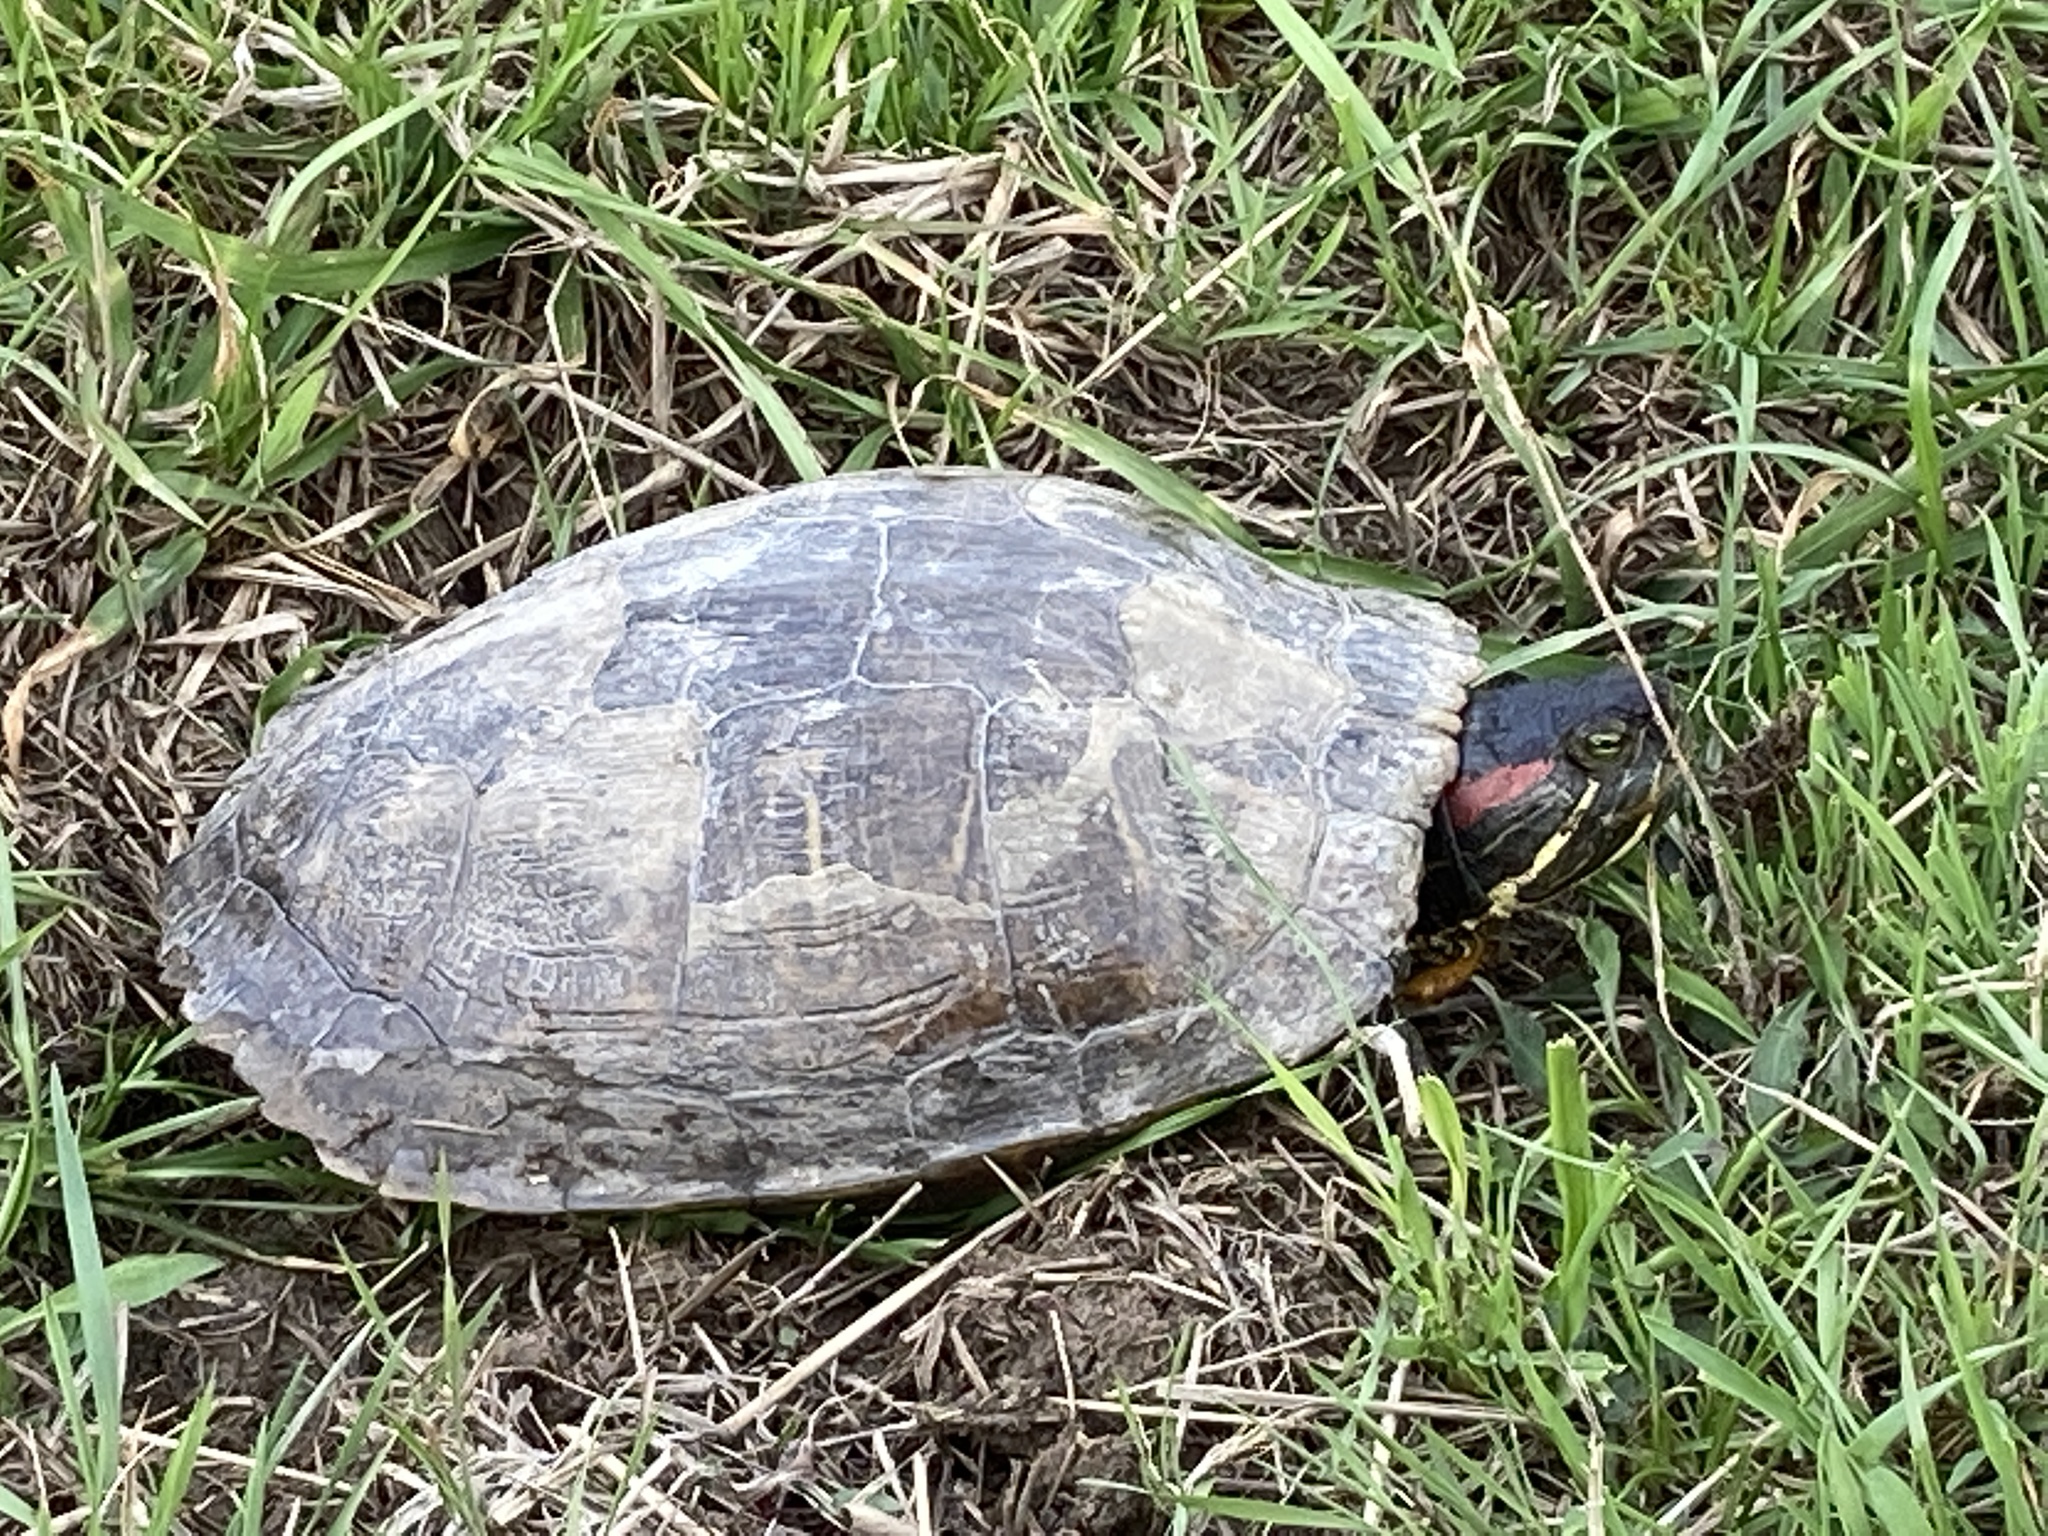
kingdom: Animalia
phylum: Chordata
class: Testudines
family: Emydidae
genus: Trachemys
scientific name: Trachemys scripta
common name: Slider
